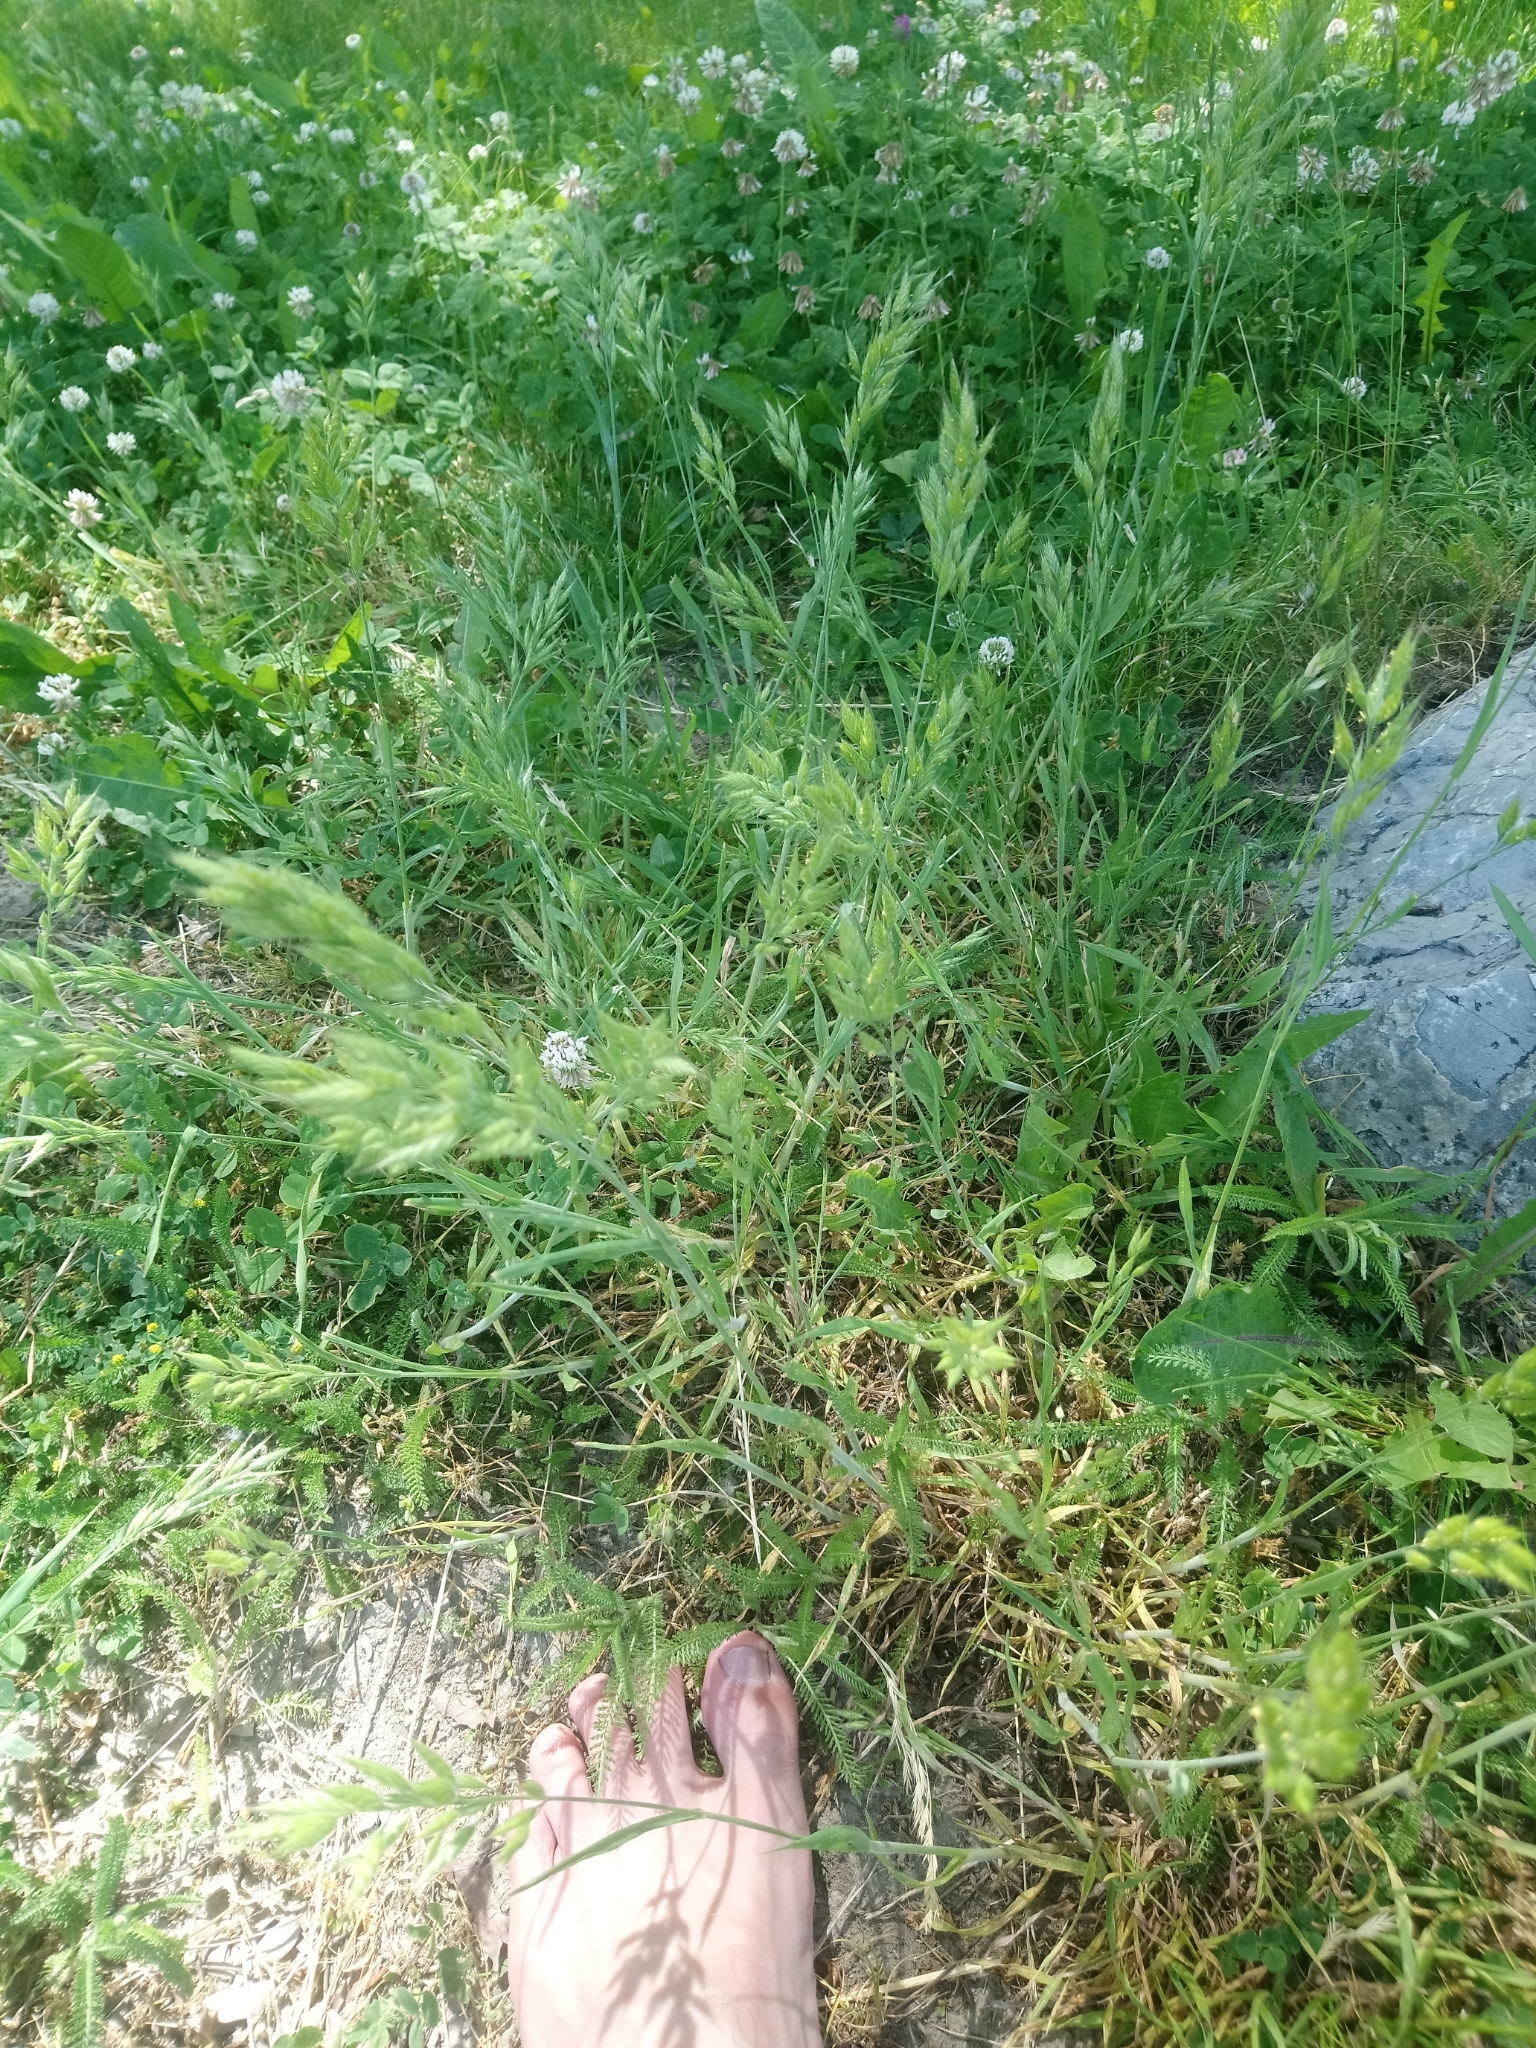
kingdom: Plantae
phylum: Tracheophyta
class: Liliopsida
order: Poales
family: Poaceae
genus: Bromus
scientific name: Bromus hordeaceus
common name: Soft brome
